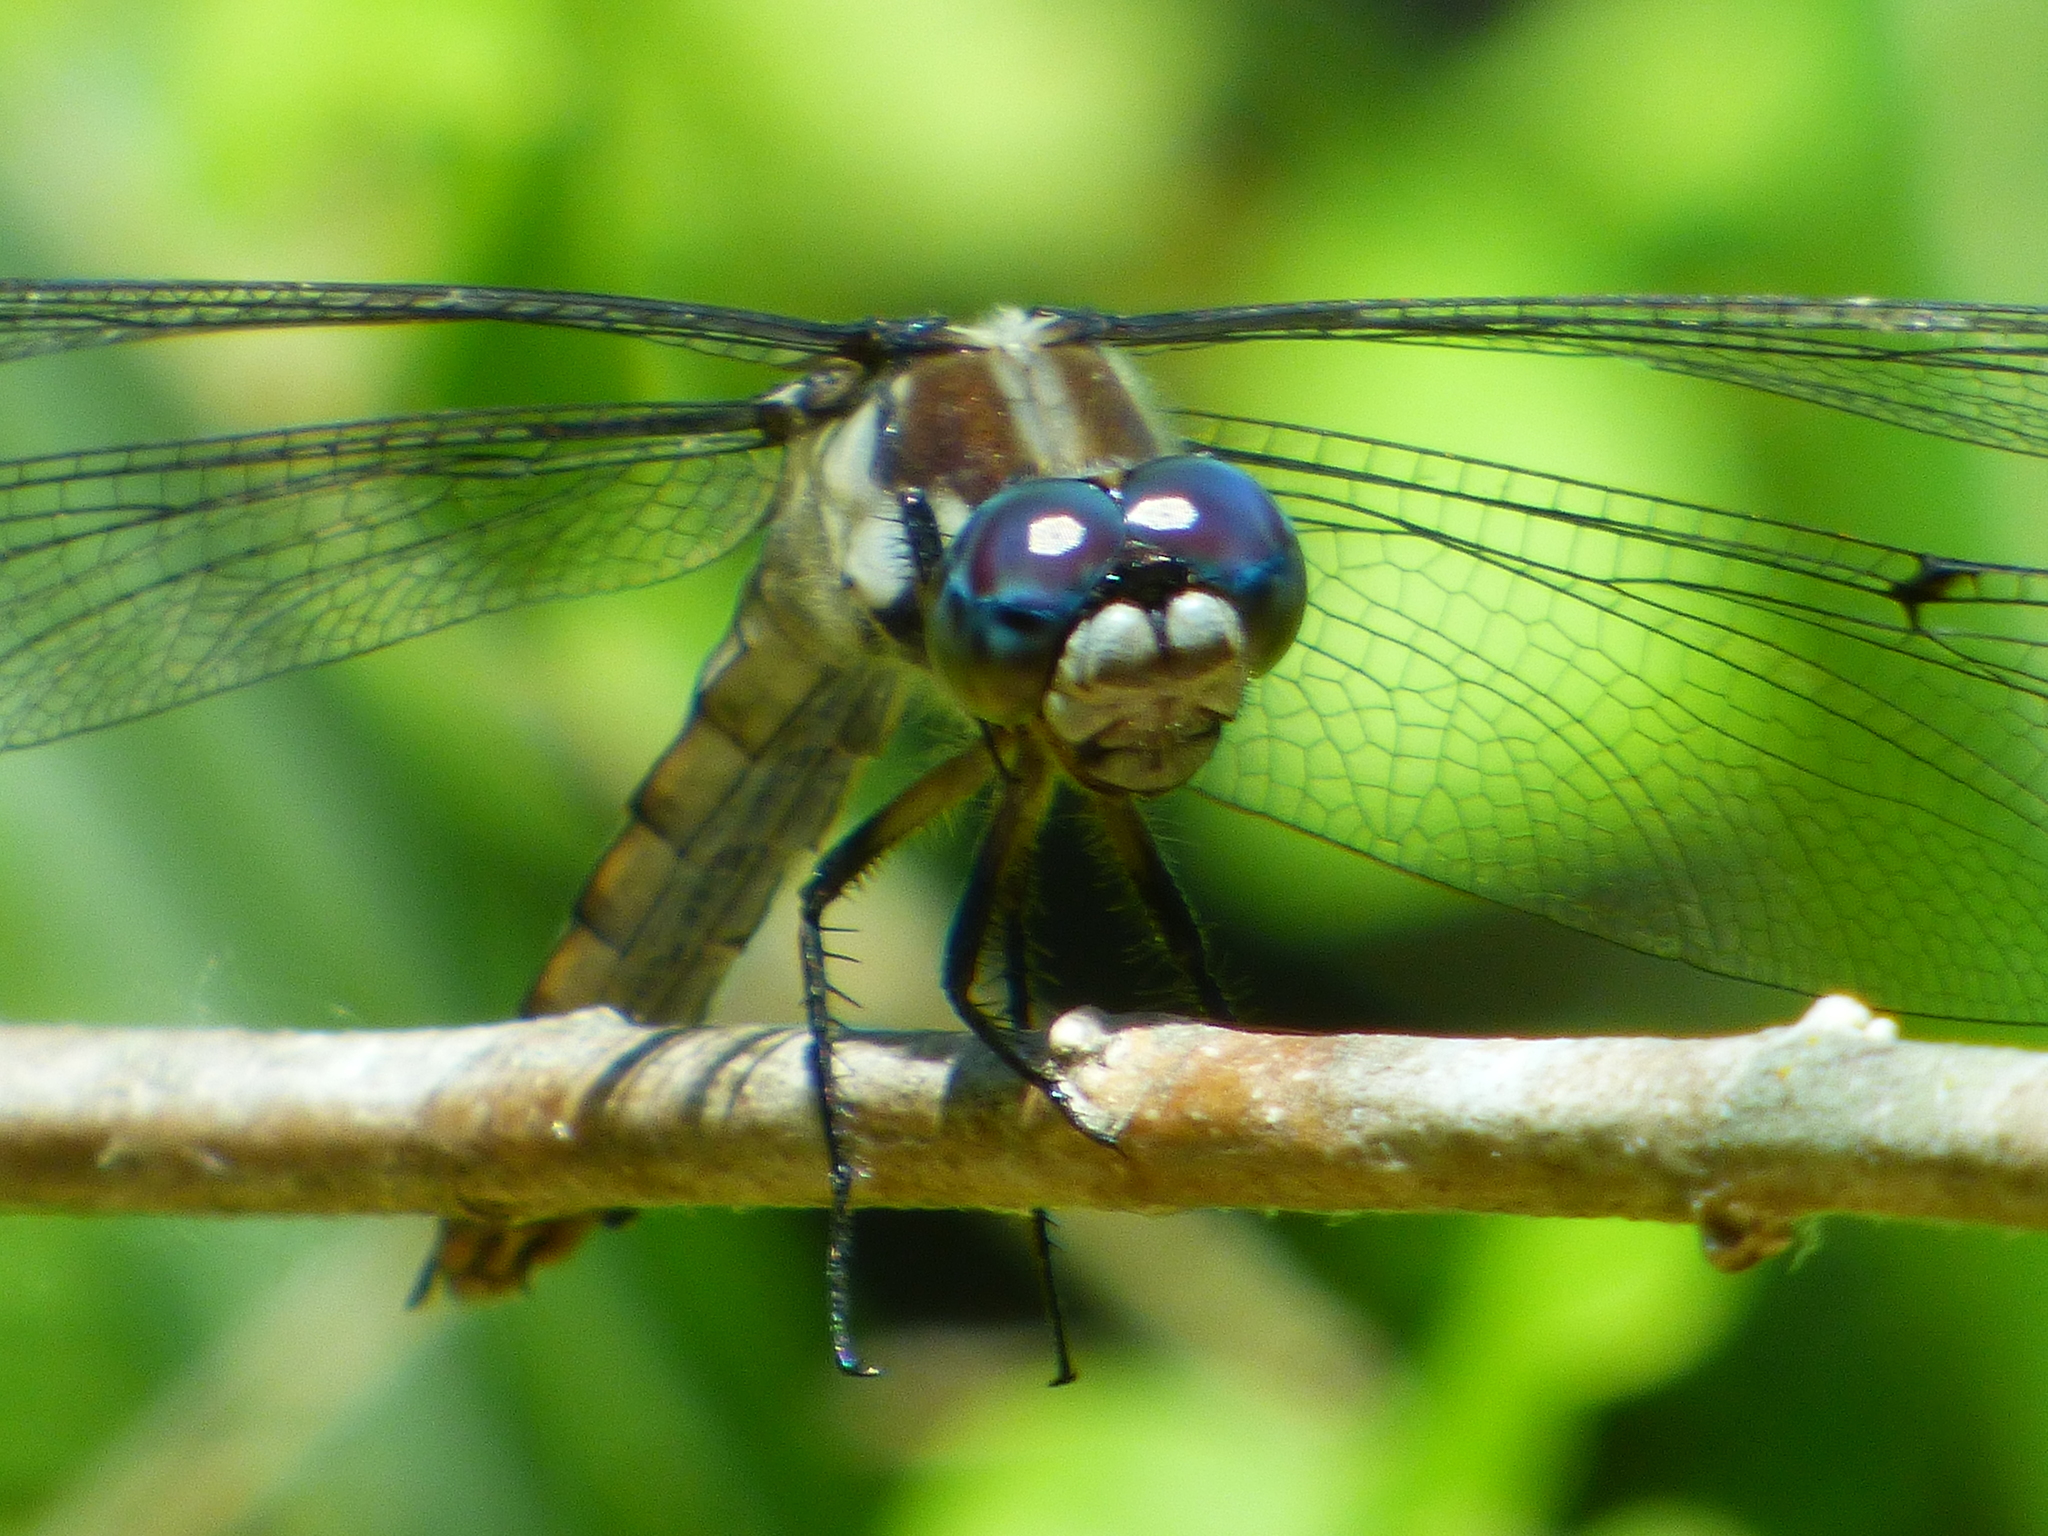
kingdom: Animalia
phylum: Arthropoda
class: Insecta
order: Odonata
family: Libellulidae
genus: Libellula
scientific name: Libellula vibrans
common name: Great blue skimmer
